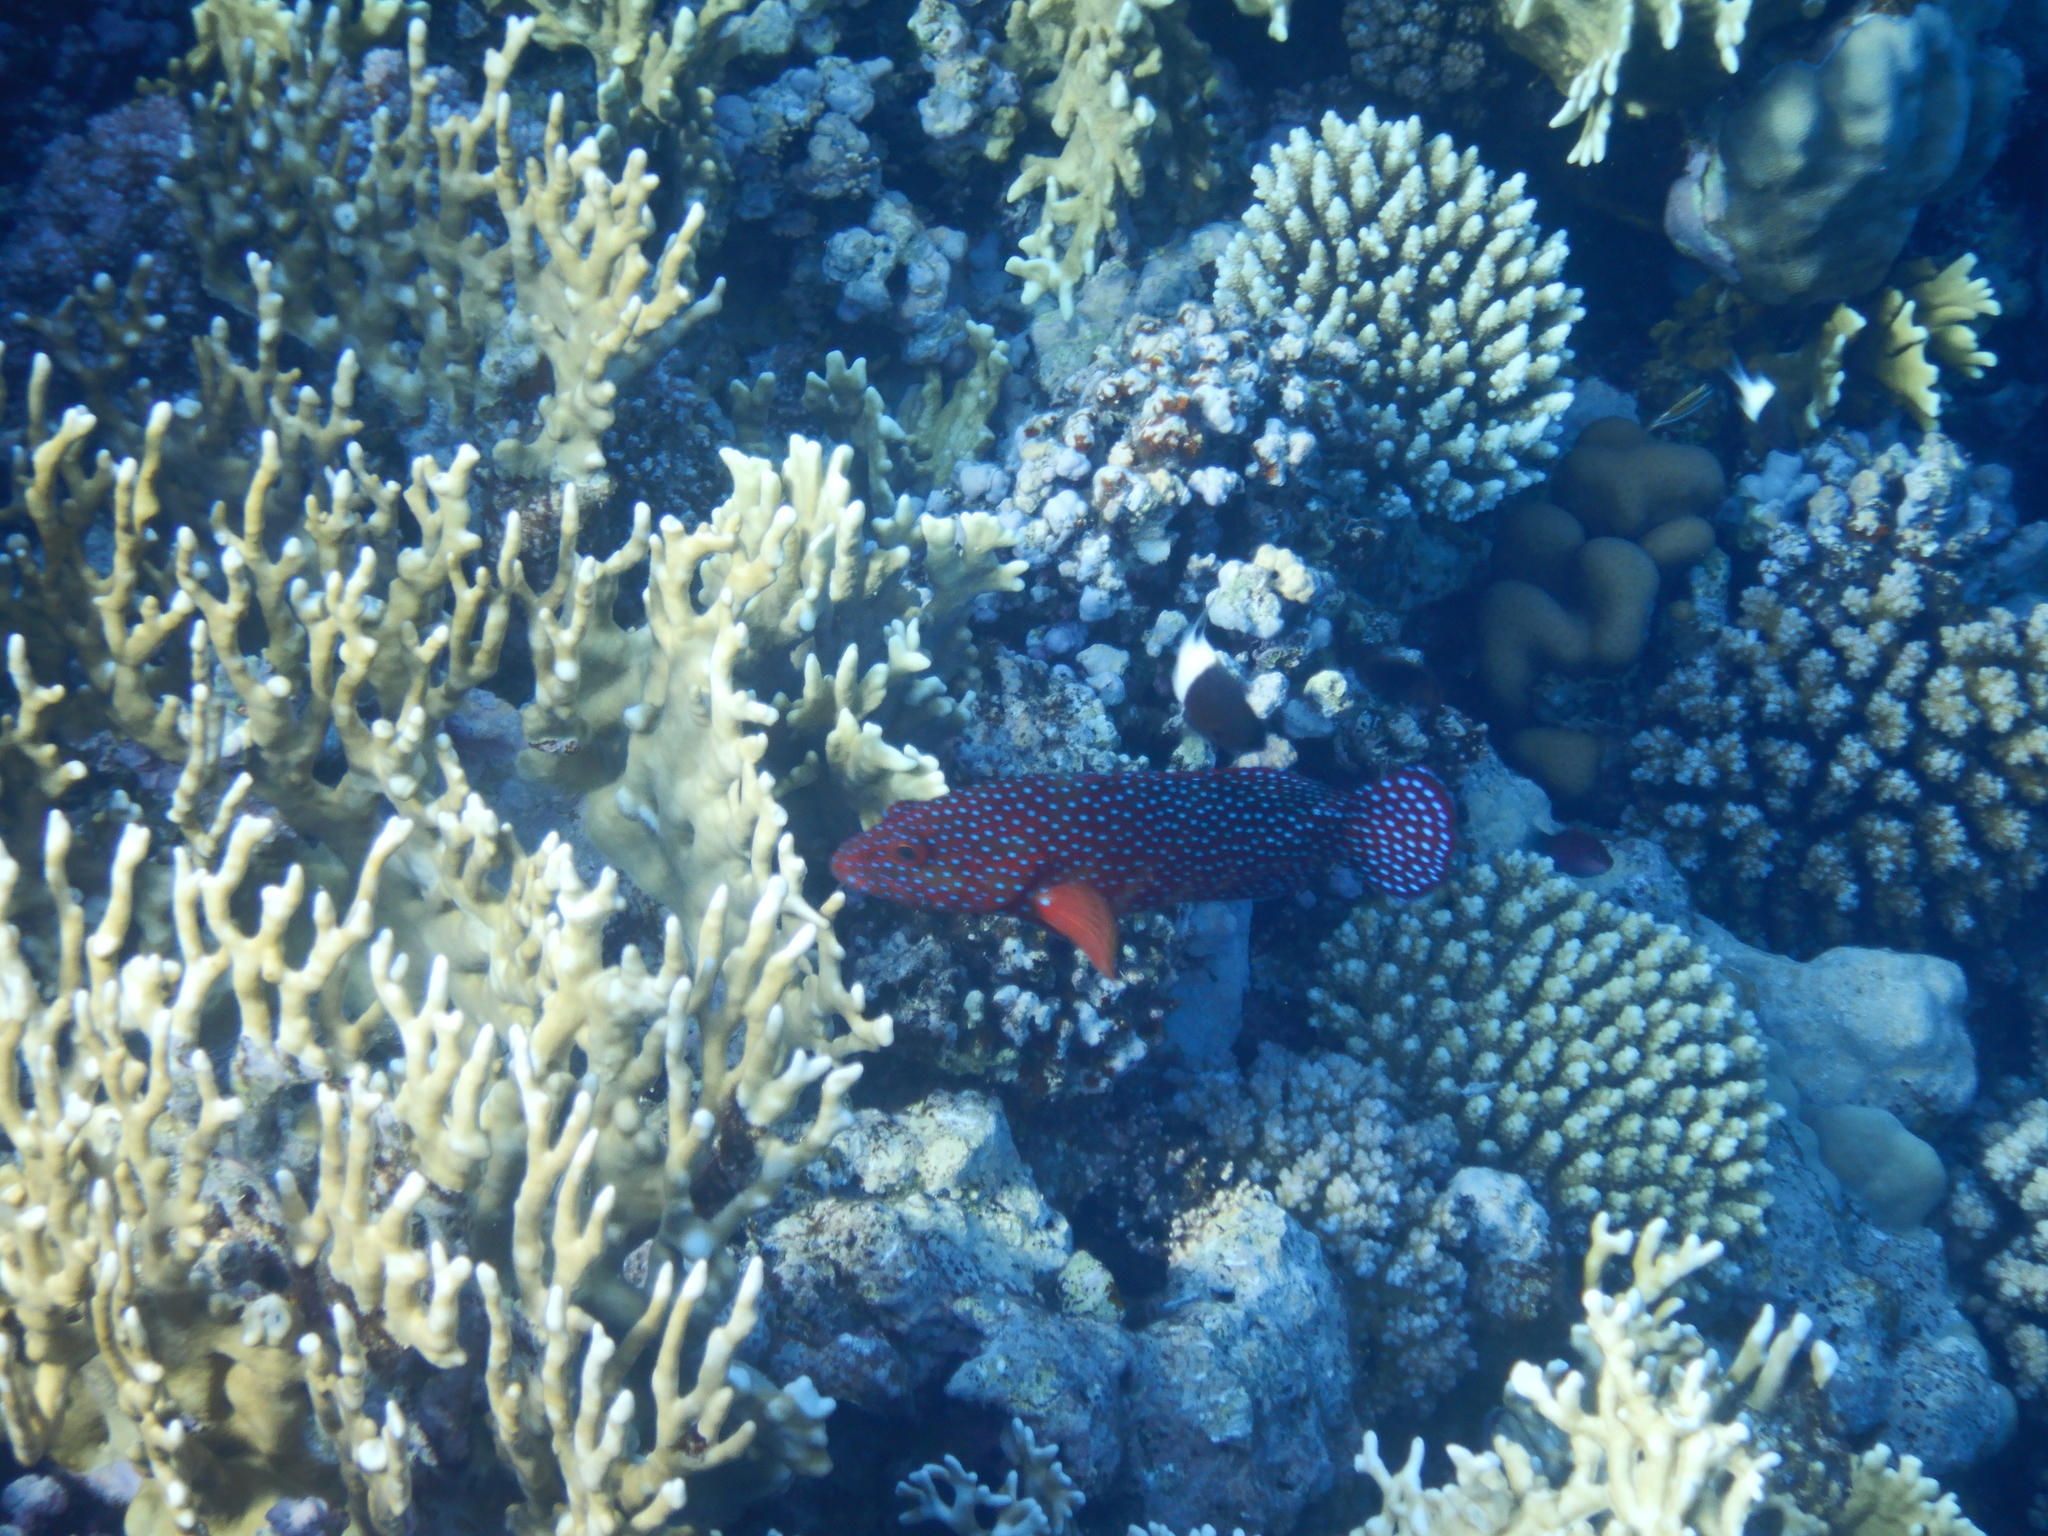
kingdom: Animalia
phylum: Chordata
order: Perciformes
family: Serranidae
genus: Cephalopholis
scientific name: Cephalopholis miniata
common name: Coral hind
